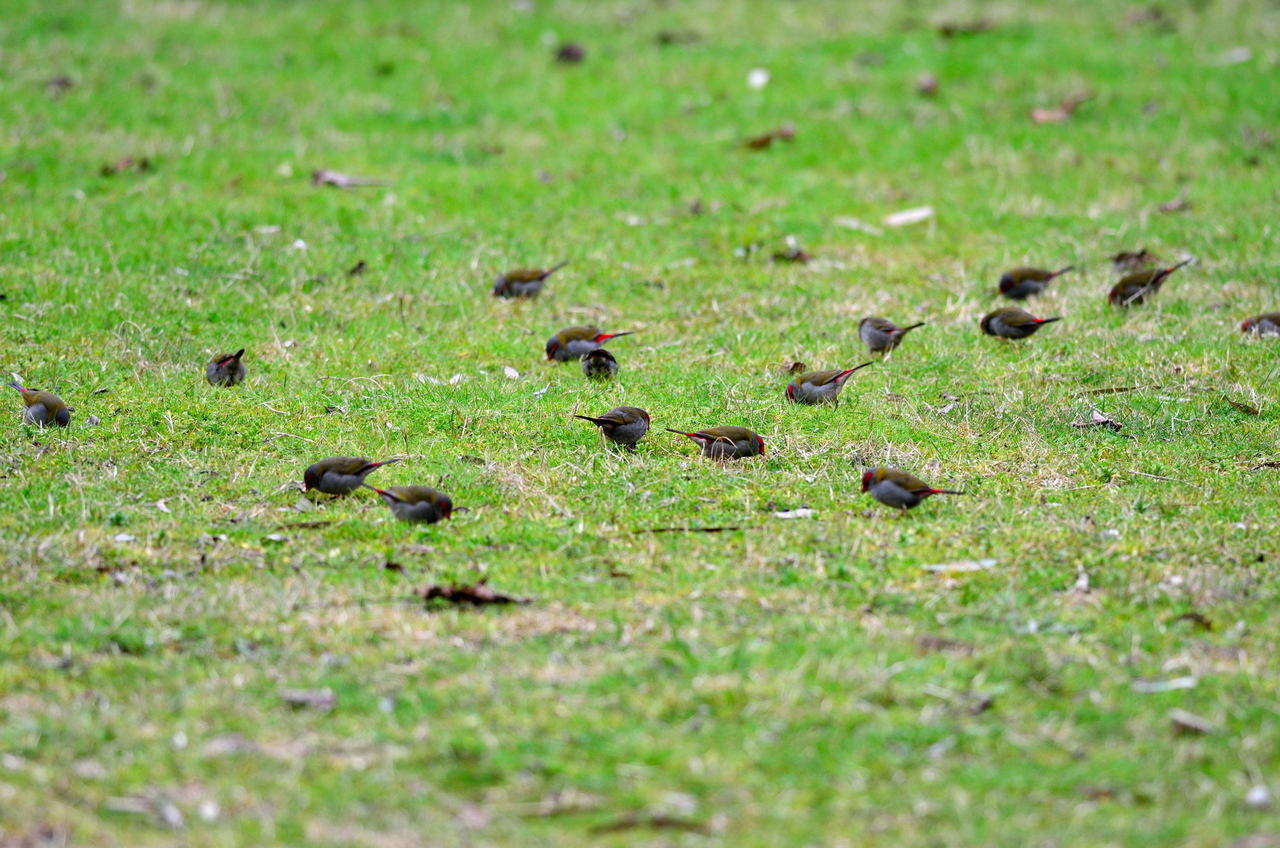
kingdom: Animalia
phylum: Chordata
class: Aves
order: Passeriformes
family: Estrildidae
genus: Neochmia
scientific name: Neochmia temporalis
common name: Red-browed finch
